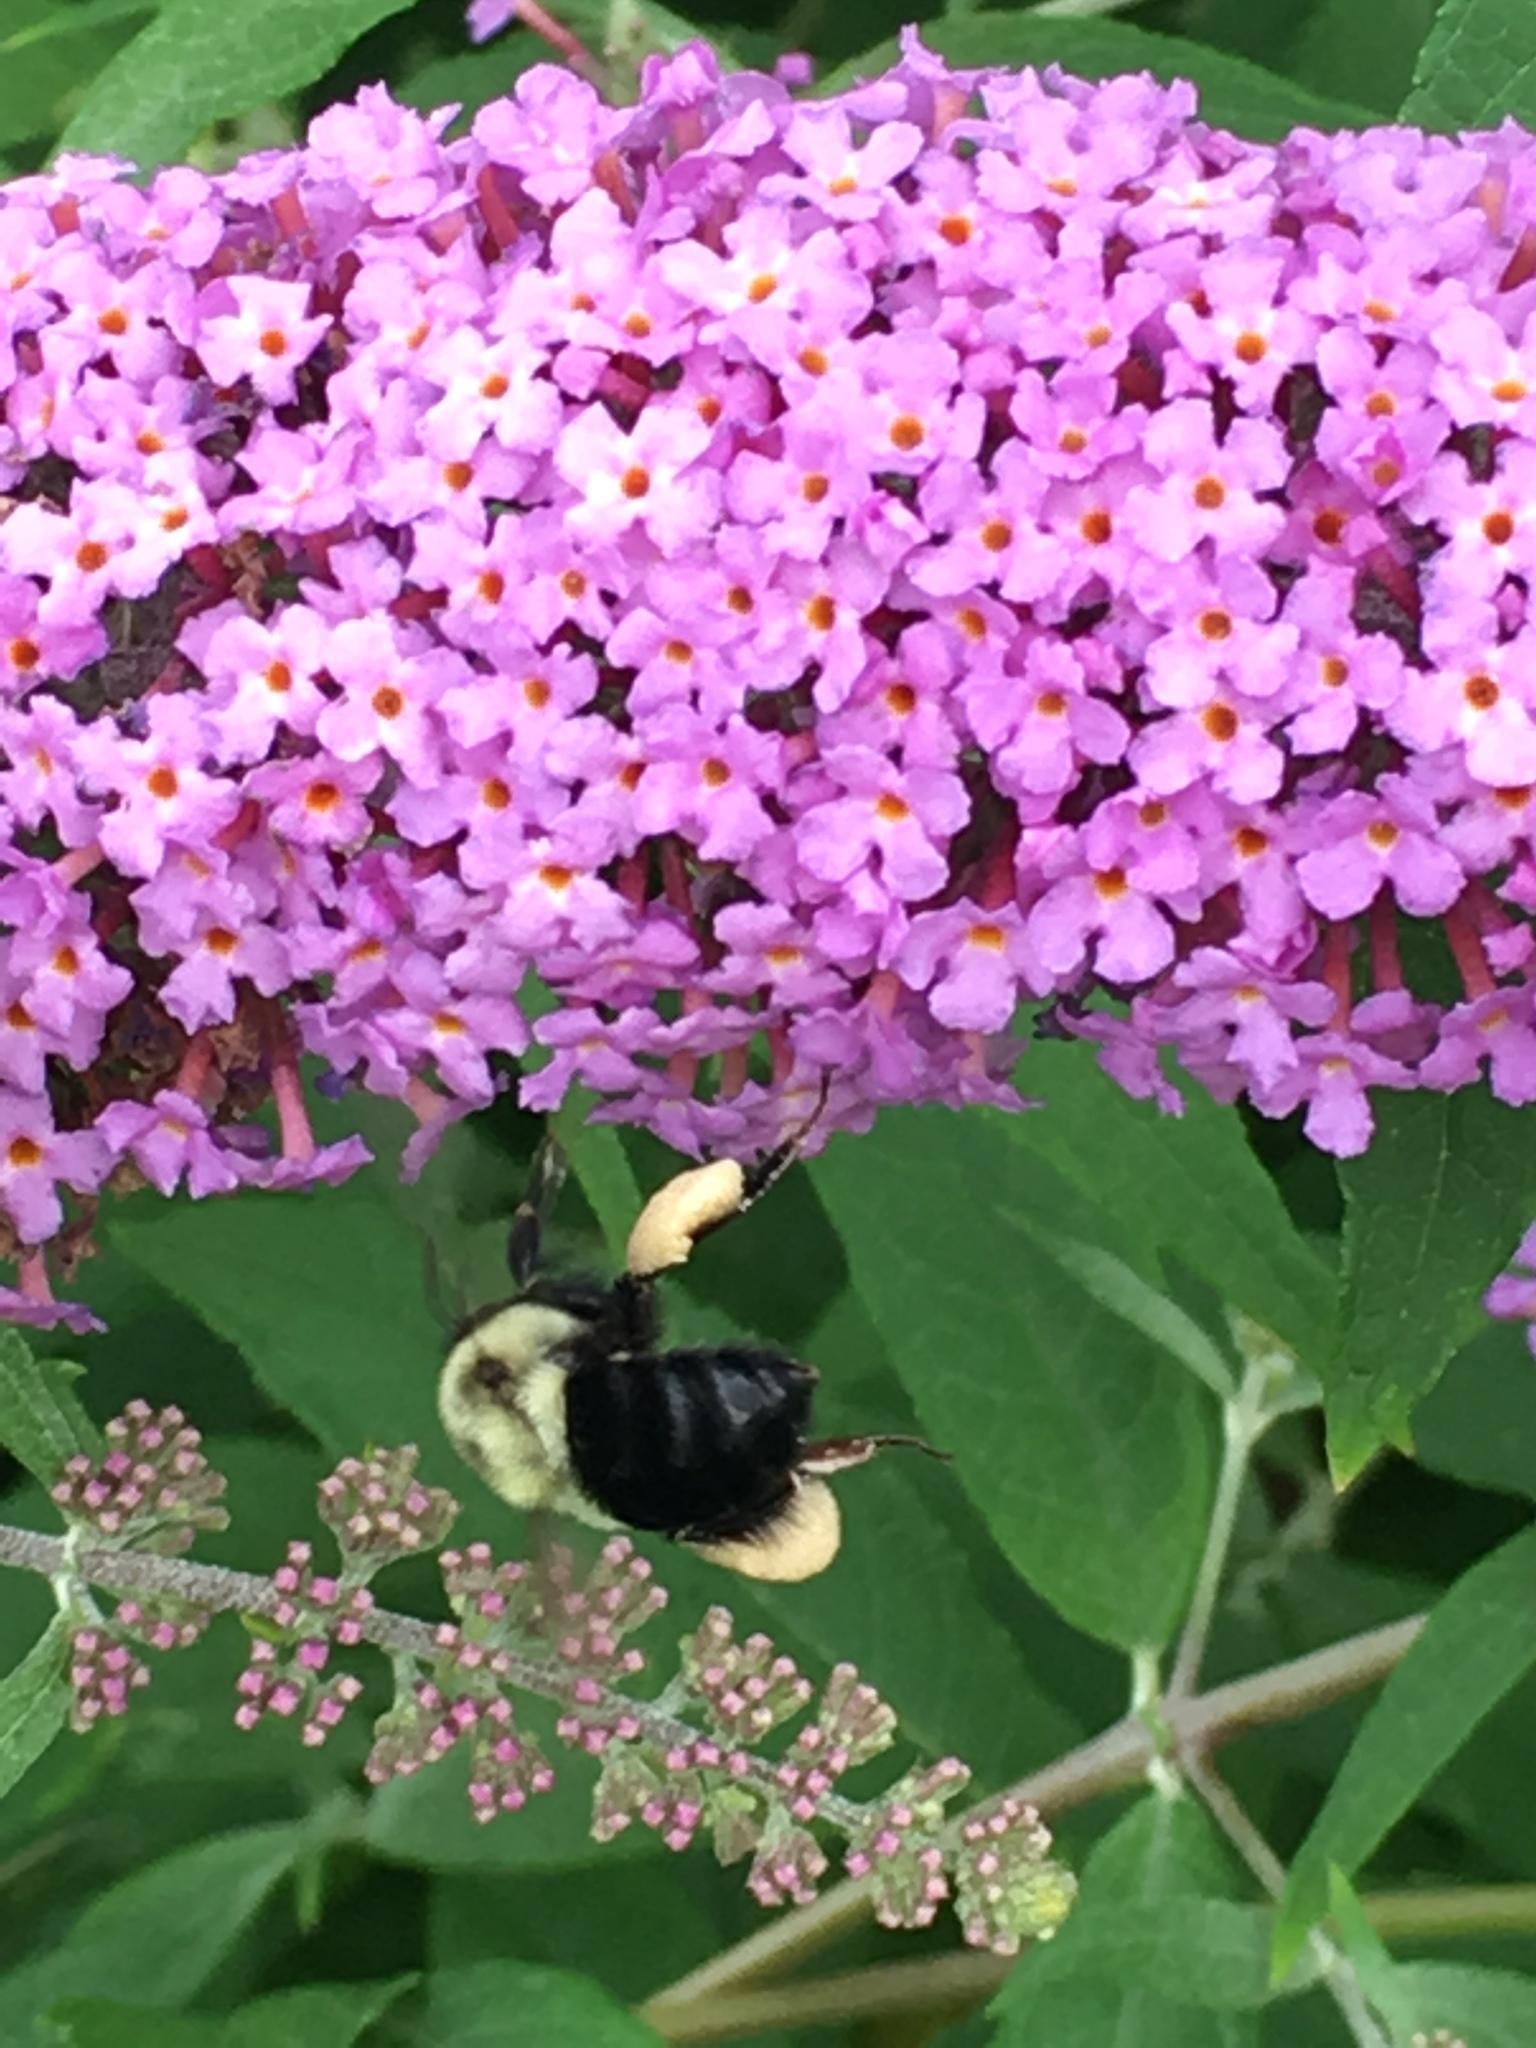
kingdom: Animalia
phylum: Arthropoda
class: Insecta
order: Hymenoptera
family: Apidae
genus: Bombus
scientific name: Bombus impatiens
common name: Common eastern bumble bee
